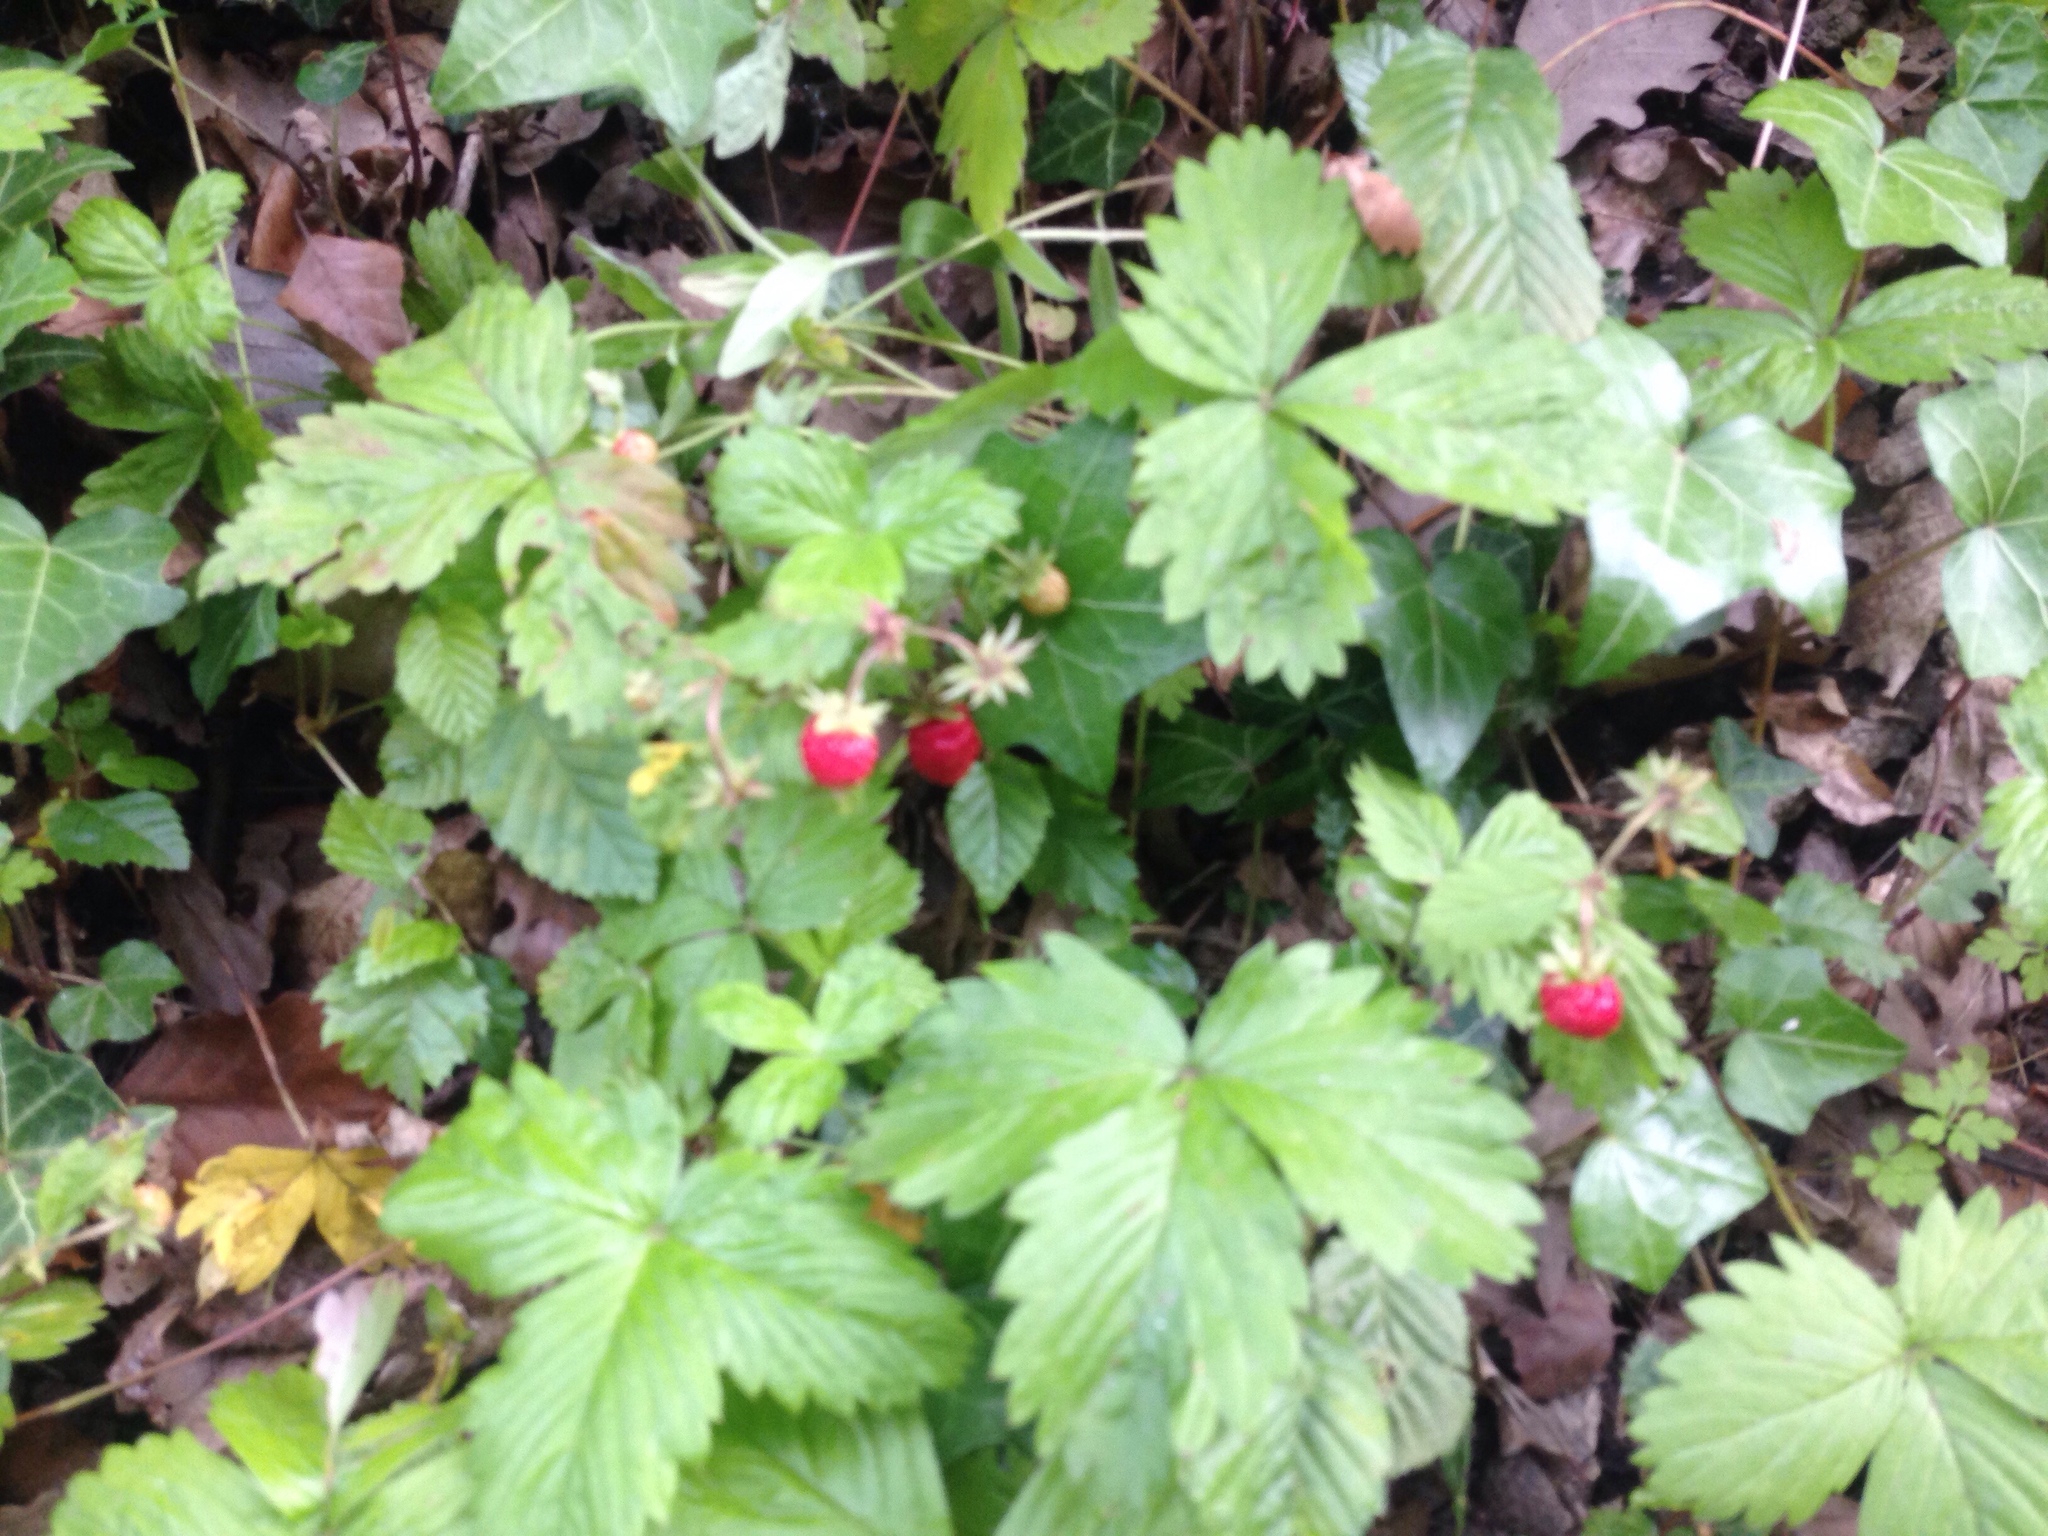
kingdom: Plantae
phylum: Tracheophyta
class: Magnoliopsida
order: Rosales
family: Rosaceae
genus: Fragaria
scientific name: Fragaria vesca
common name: Wild strawberry
